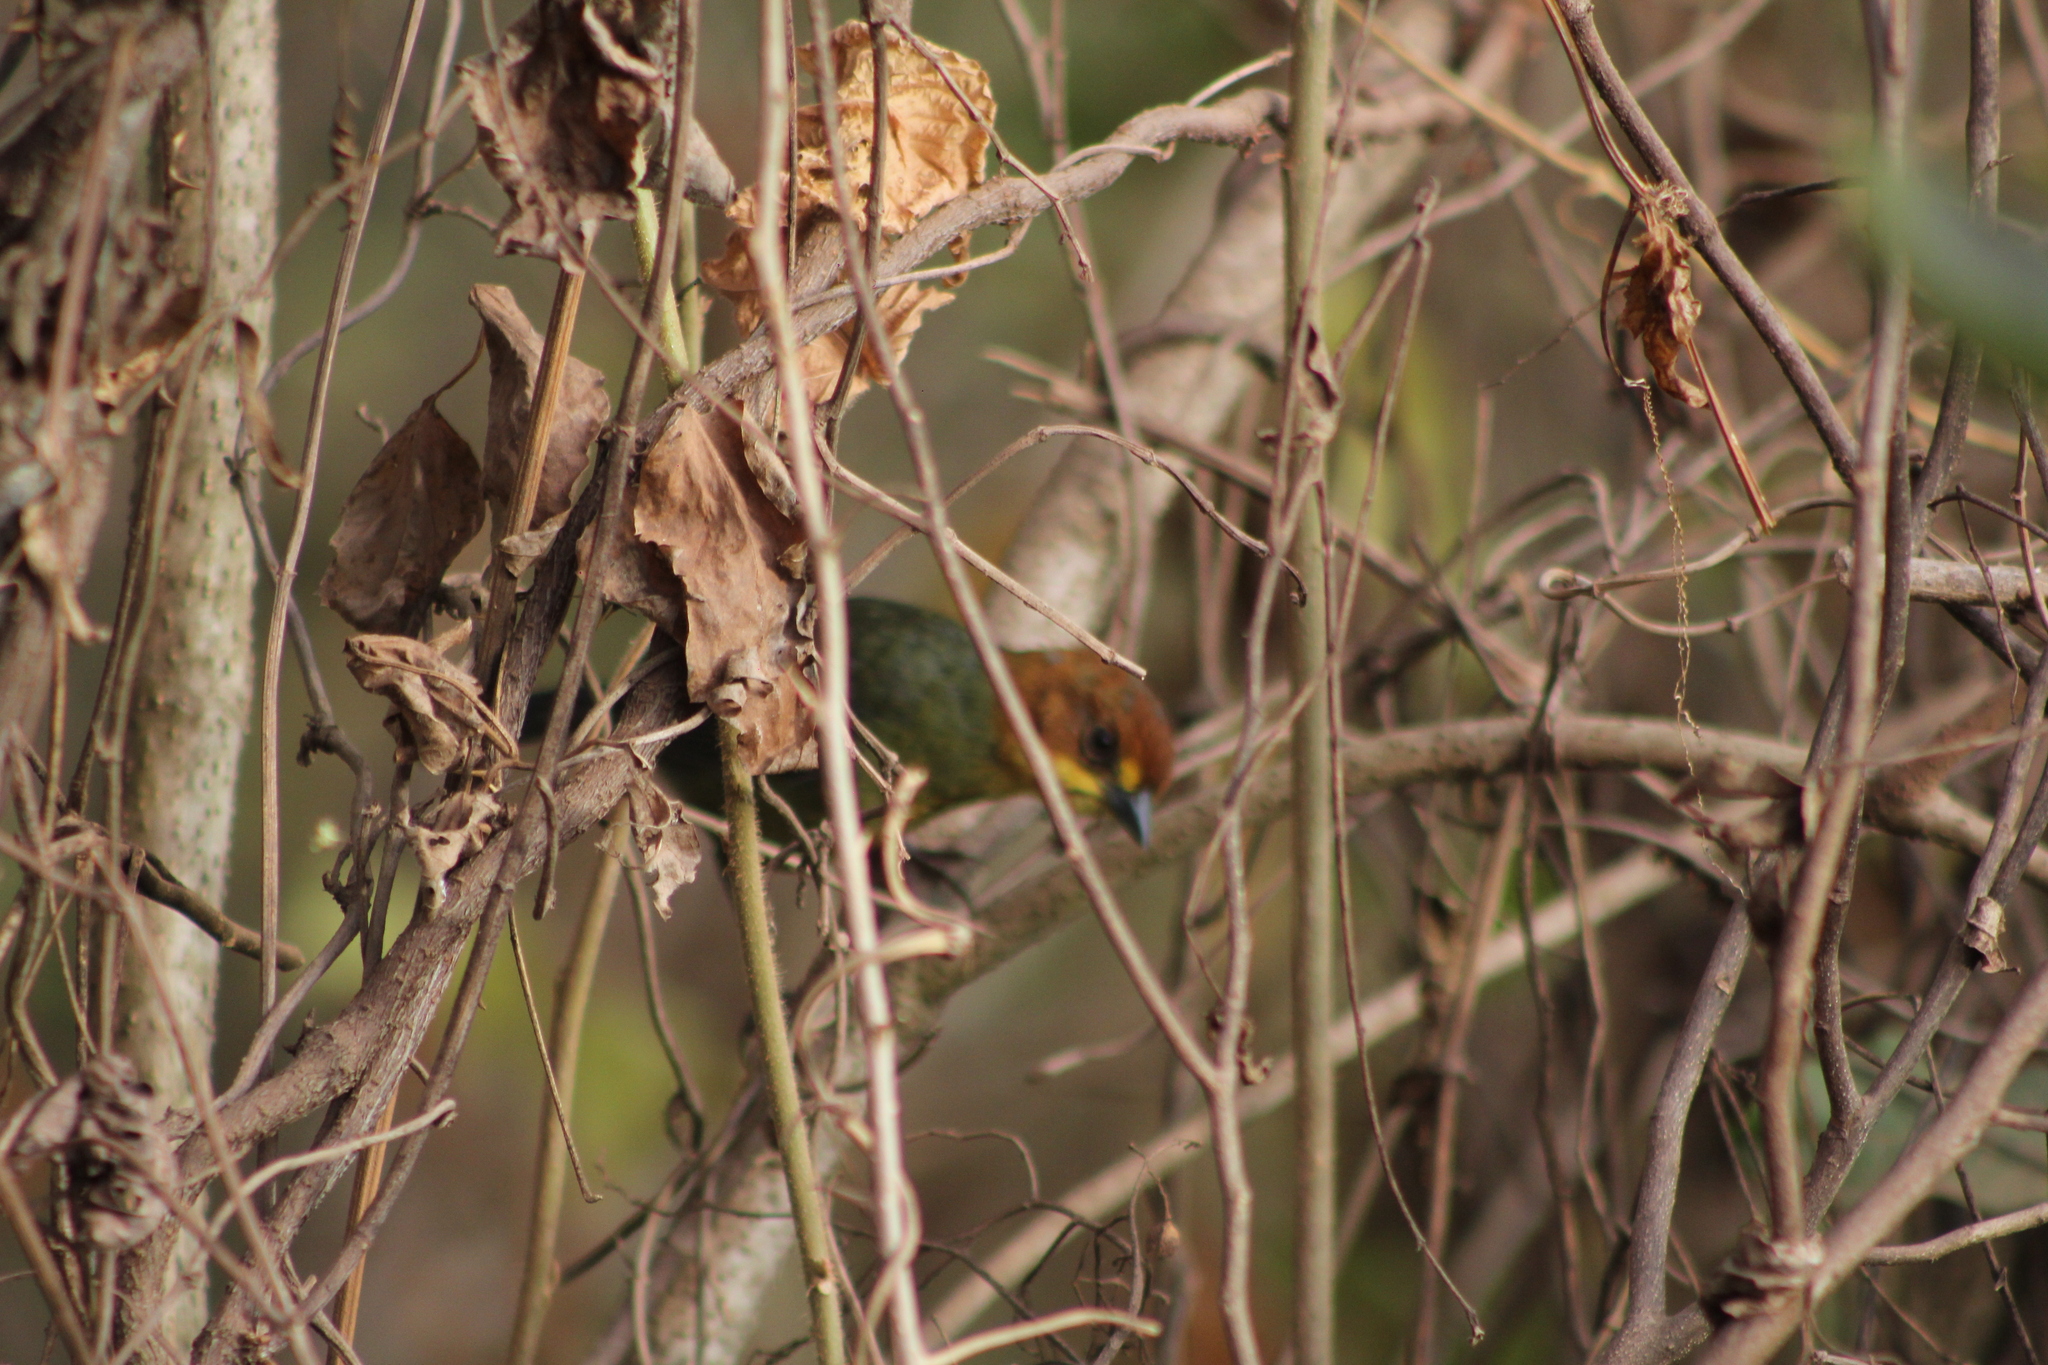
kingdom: Animalia
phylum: Chordata
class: Aves
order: Passeriformes
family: Passerellidae
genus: Atlapetes
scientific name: Atlapetes fulviceps
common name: Fulvous-headed brushfinch
